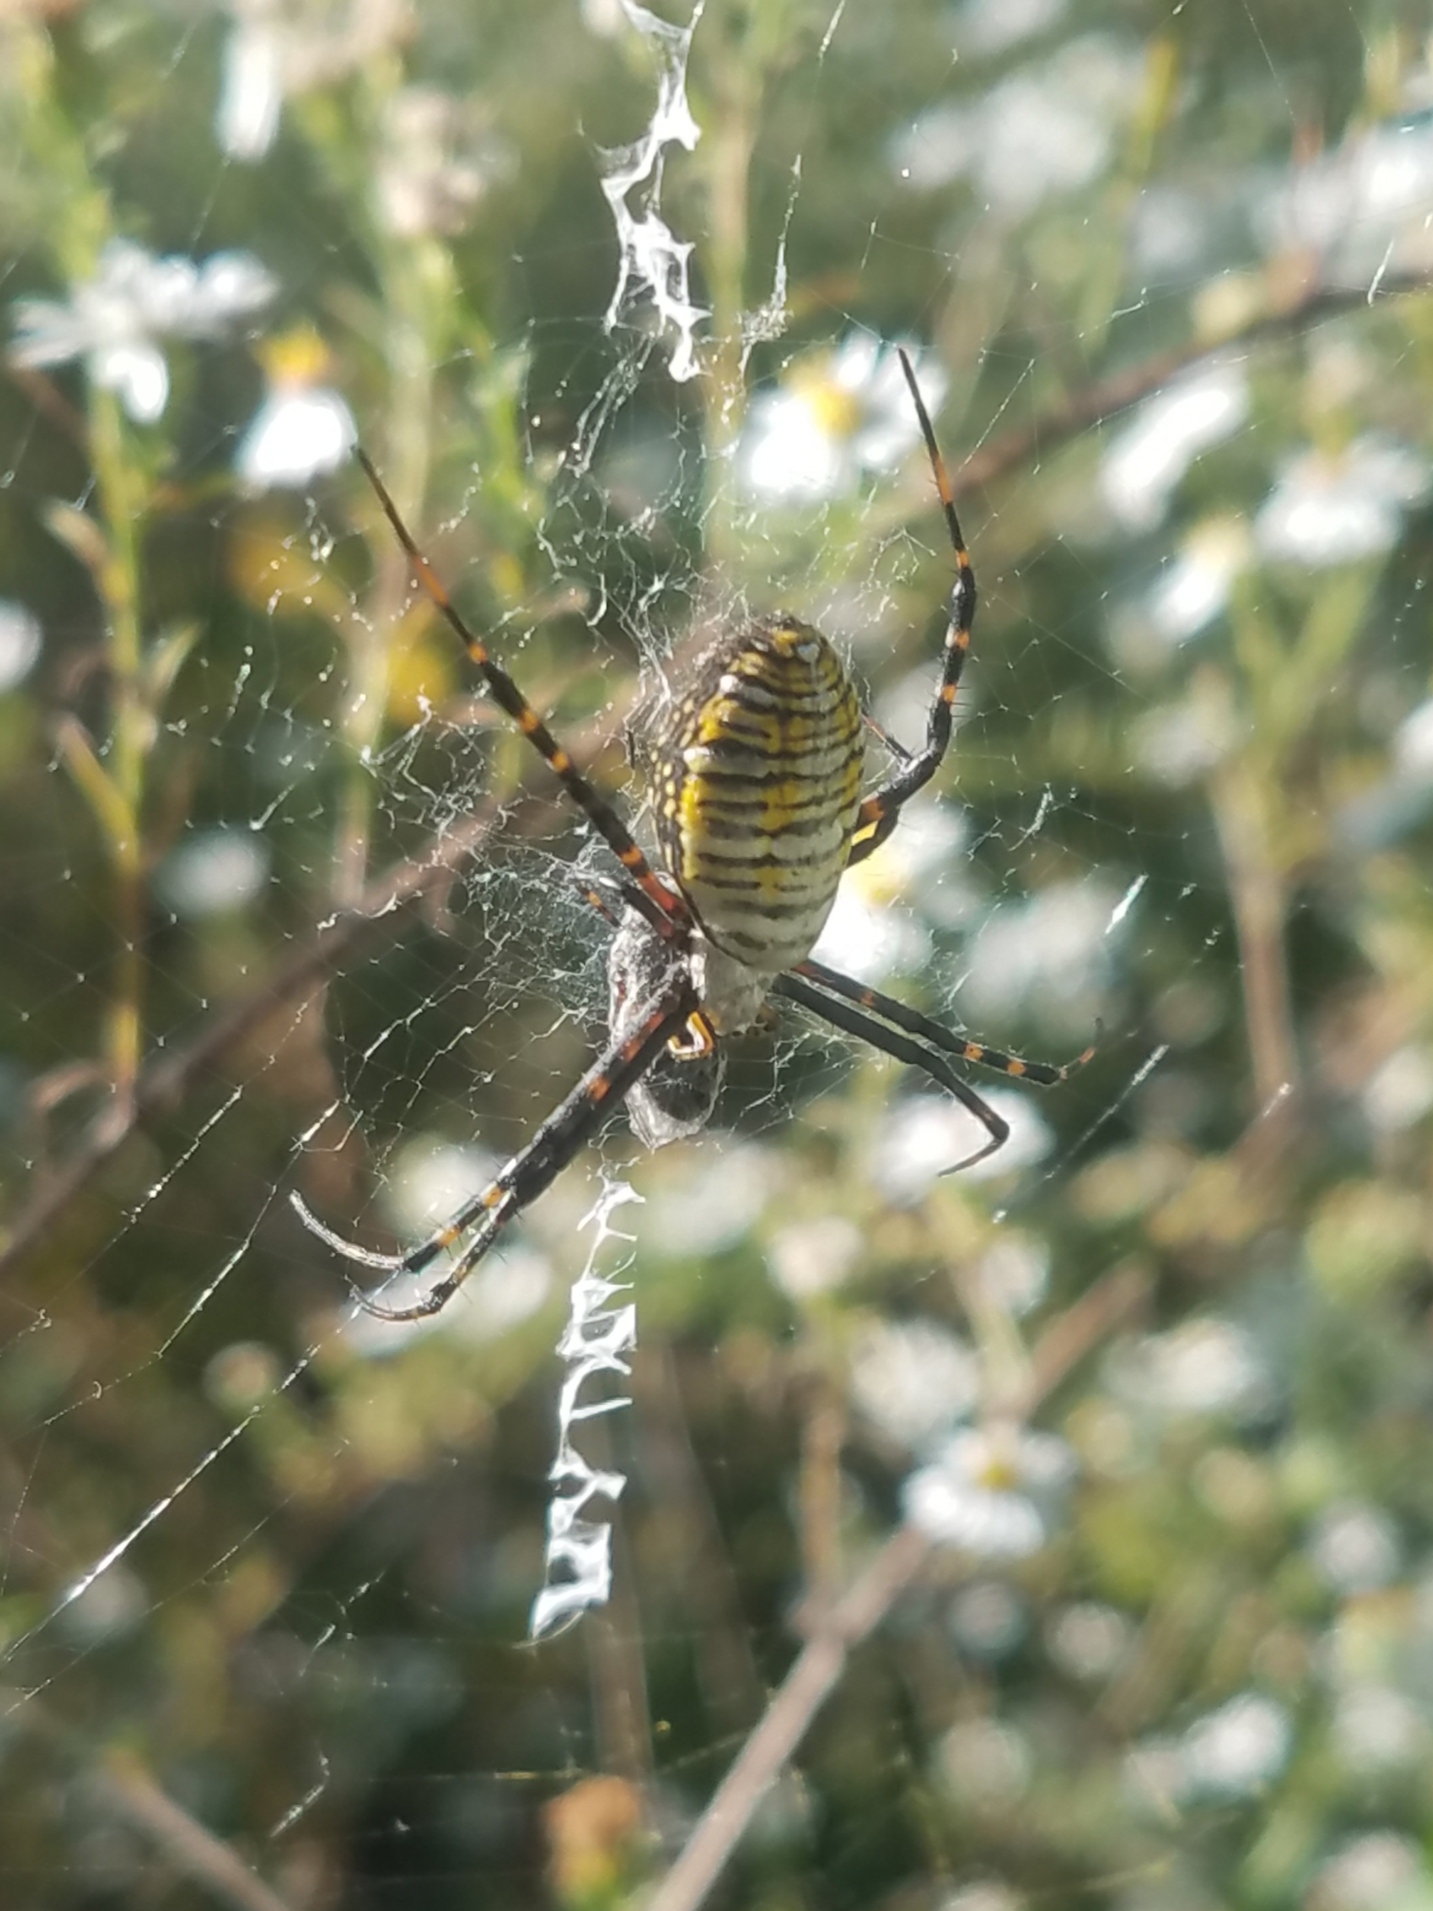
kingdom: Animalia
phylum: Arthropoda
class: Arachnida
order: Araneae
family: Araneidae
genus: Argiope
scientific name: Argiope trifasciata
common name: Banded garden spider
